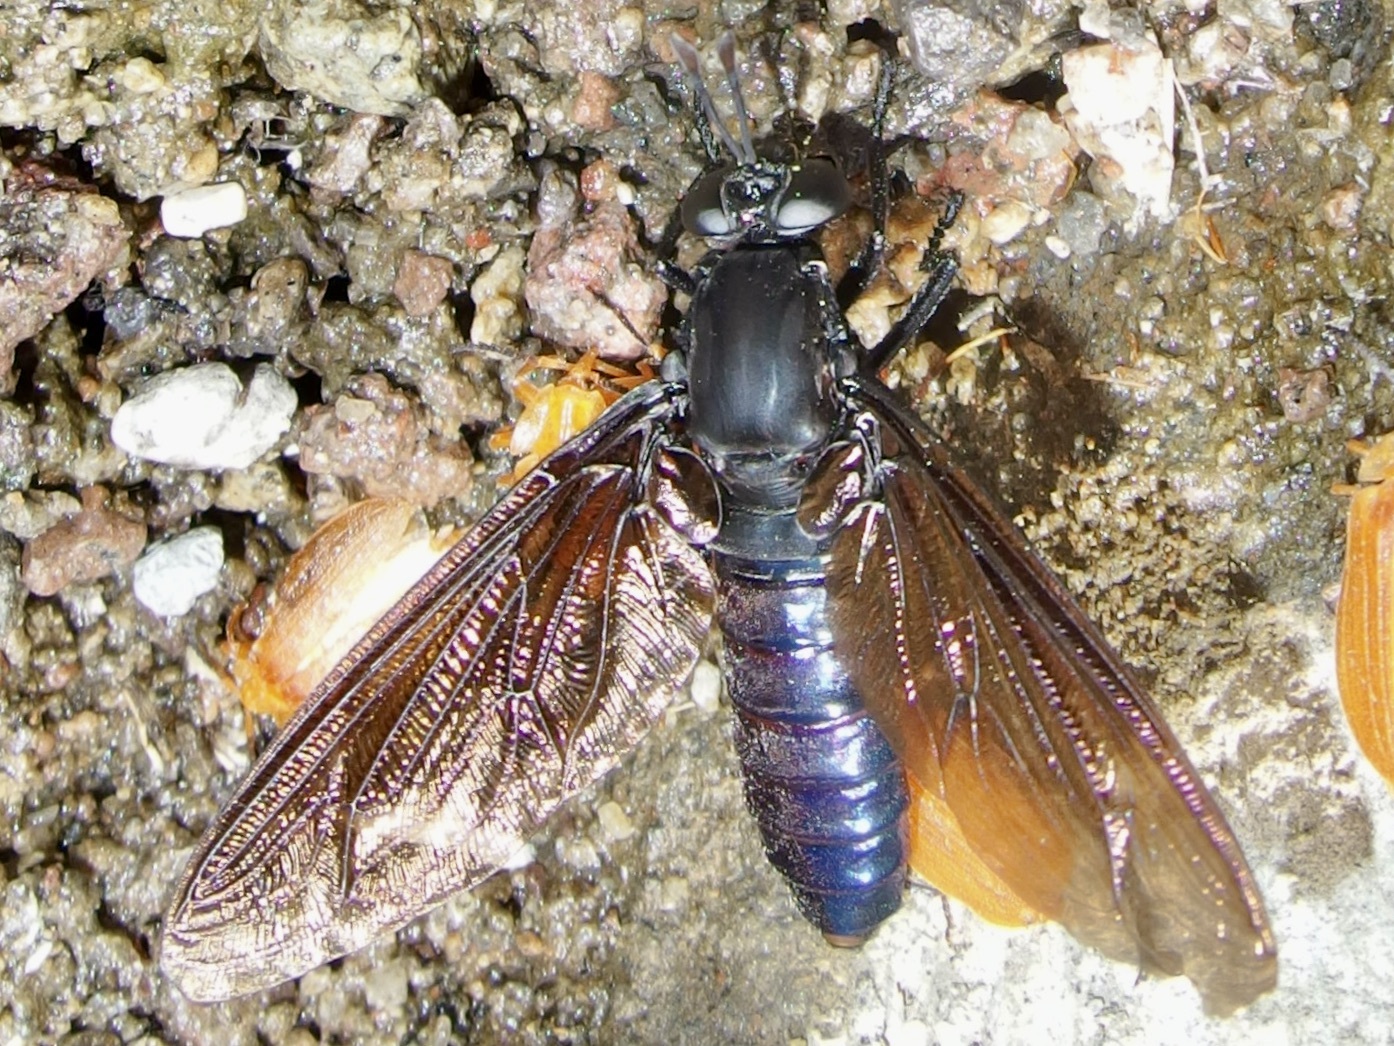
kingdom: Animalia
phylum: Arthropoda
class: Insecta
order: Diptera
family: Mydidae
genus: Mydas
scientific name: Mydas boonei
